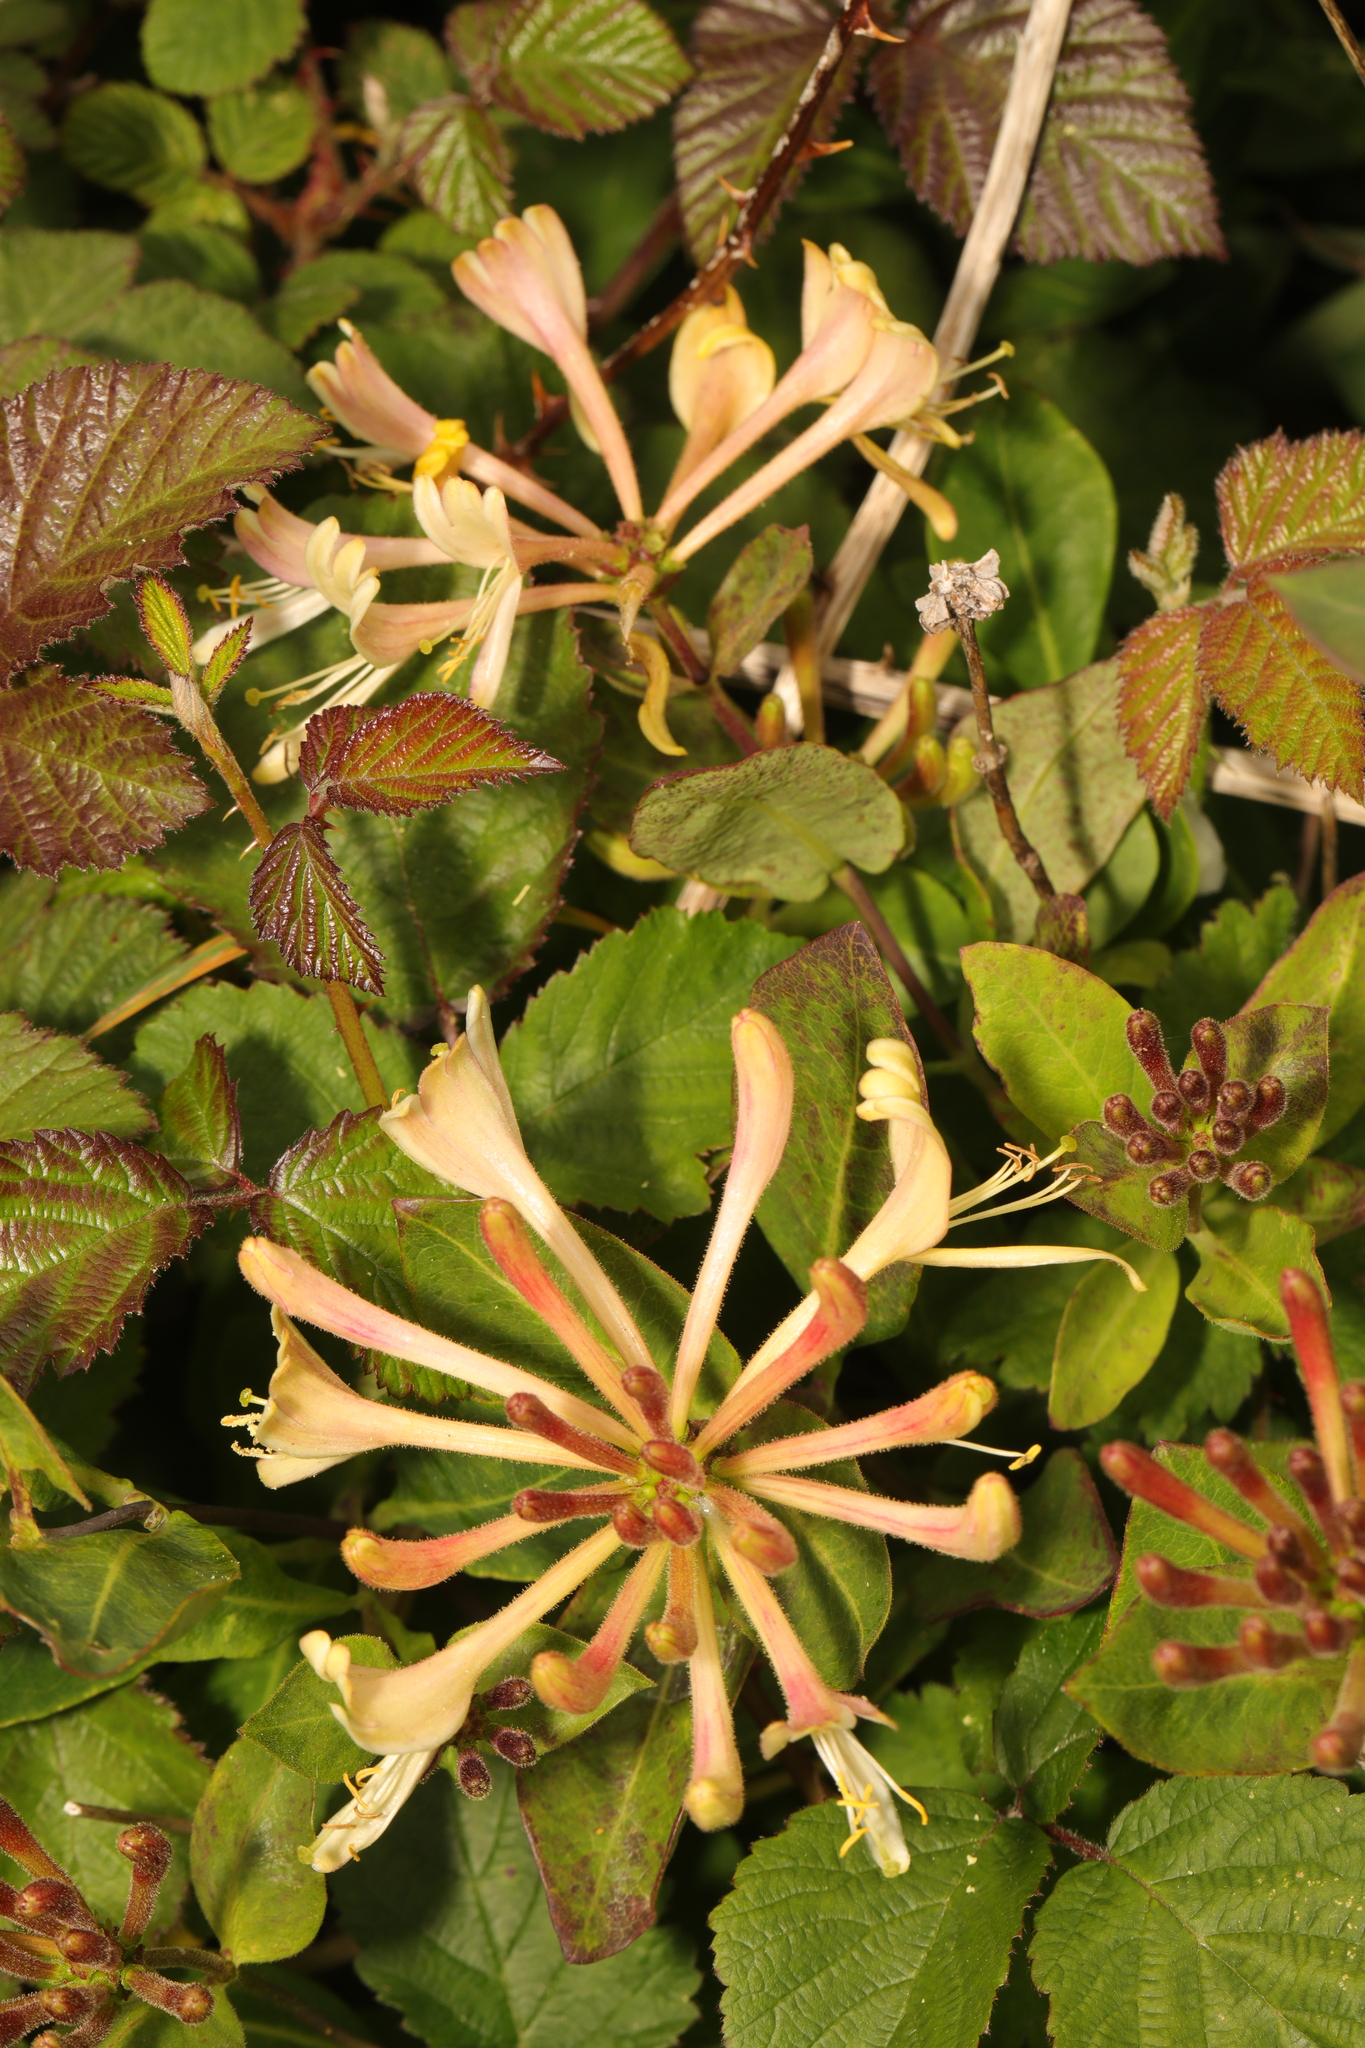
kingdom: Plantae
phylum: Tracheophyta
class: Magnoliopsida
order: Dipsacales
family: Caprifoliaceae
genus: Lonicera
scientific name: Lonicera periclymenum
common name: European honeysuckle
